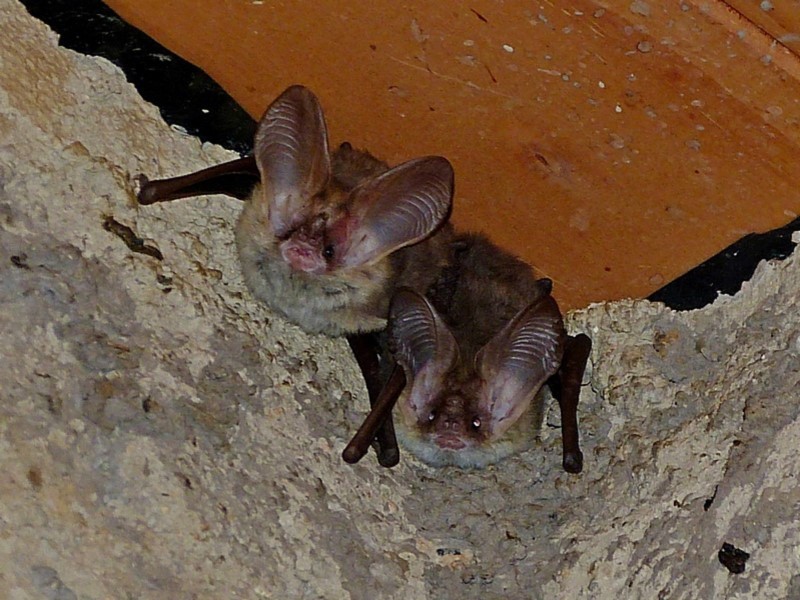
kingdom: Animalia
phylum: Chordata
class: Mammalia
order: Chiroptera
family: Vespertilionidae
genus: Nyctophilus
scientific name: Nyctophilus geoffroyi
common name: Lesser long-eared bat
